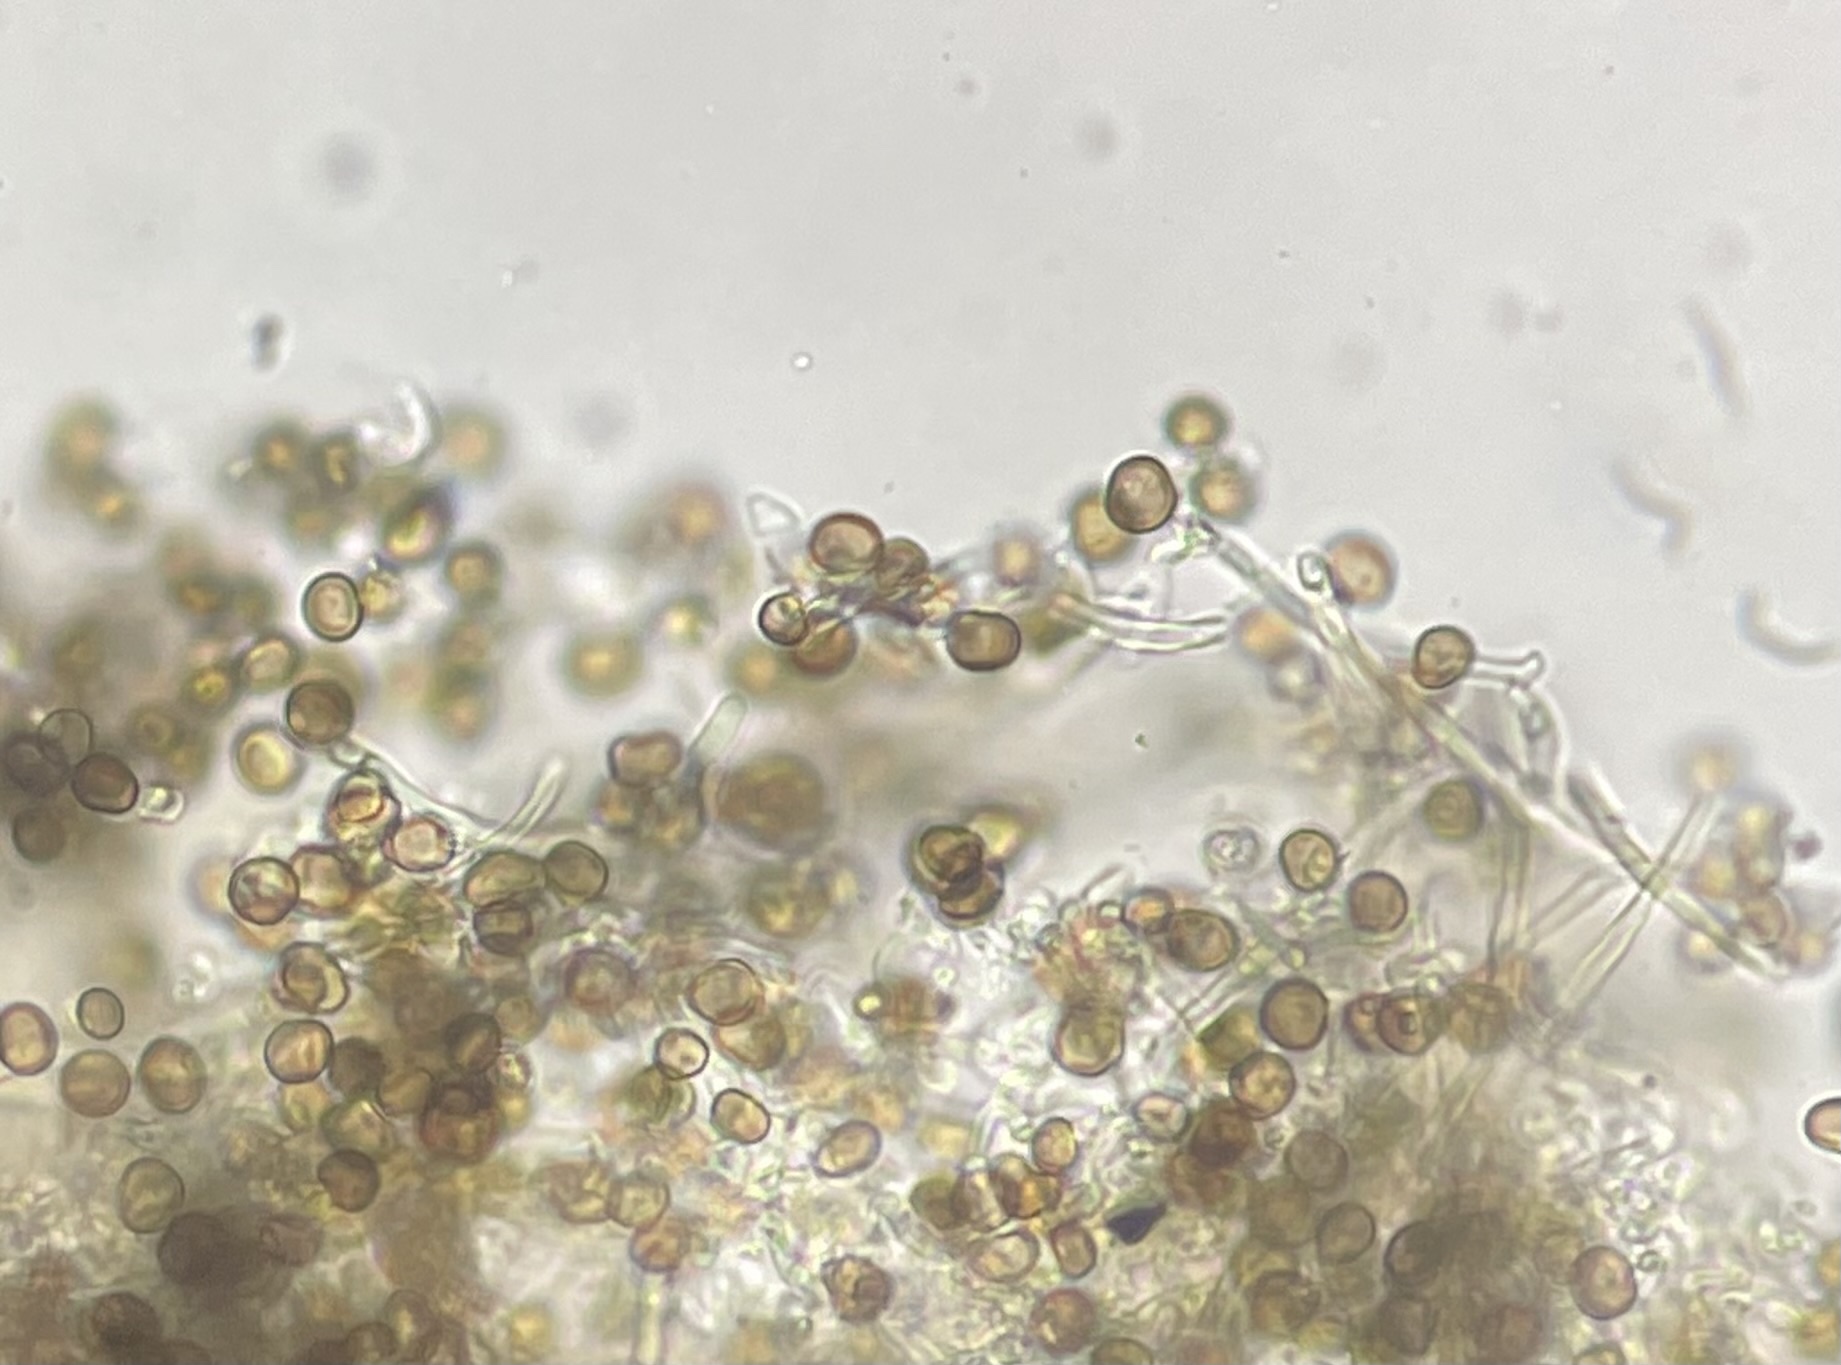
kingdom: Fungi
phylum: Basidiomycota
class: Atractiellomycetes
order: Atractiellales
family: Phleogenaceae
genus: Phleogena
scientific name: Phleogena faginea
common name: Fenugreek stalkball
